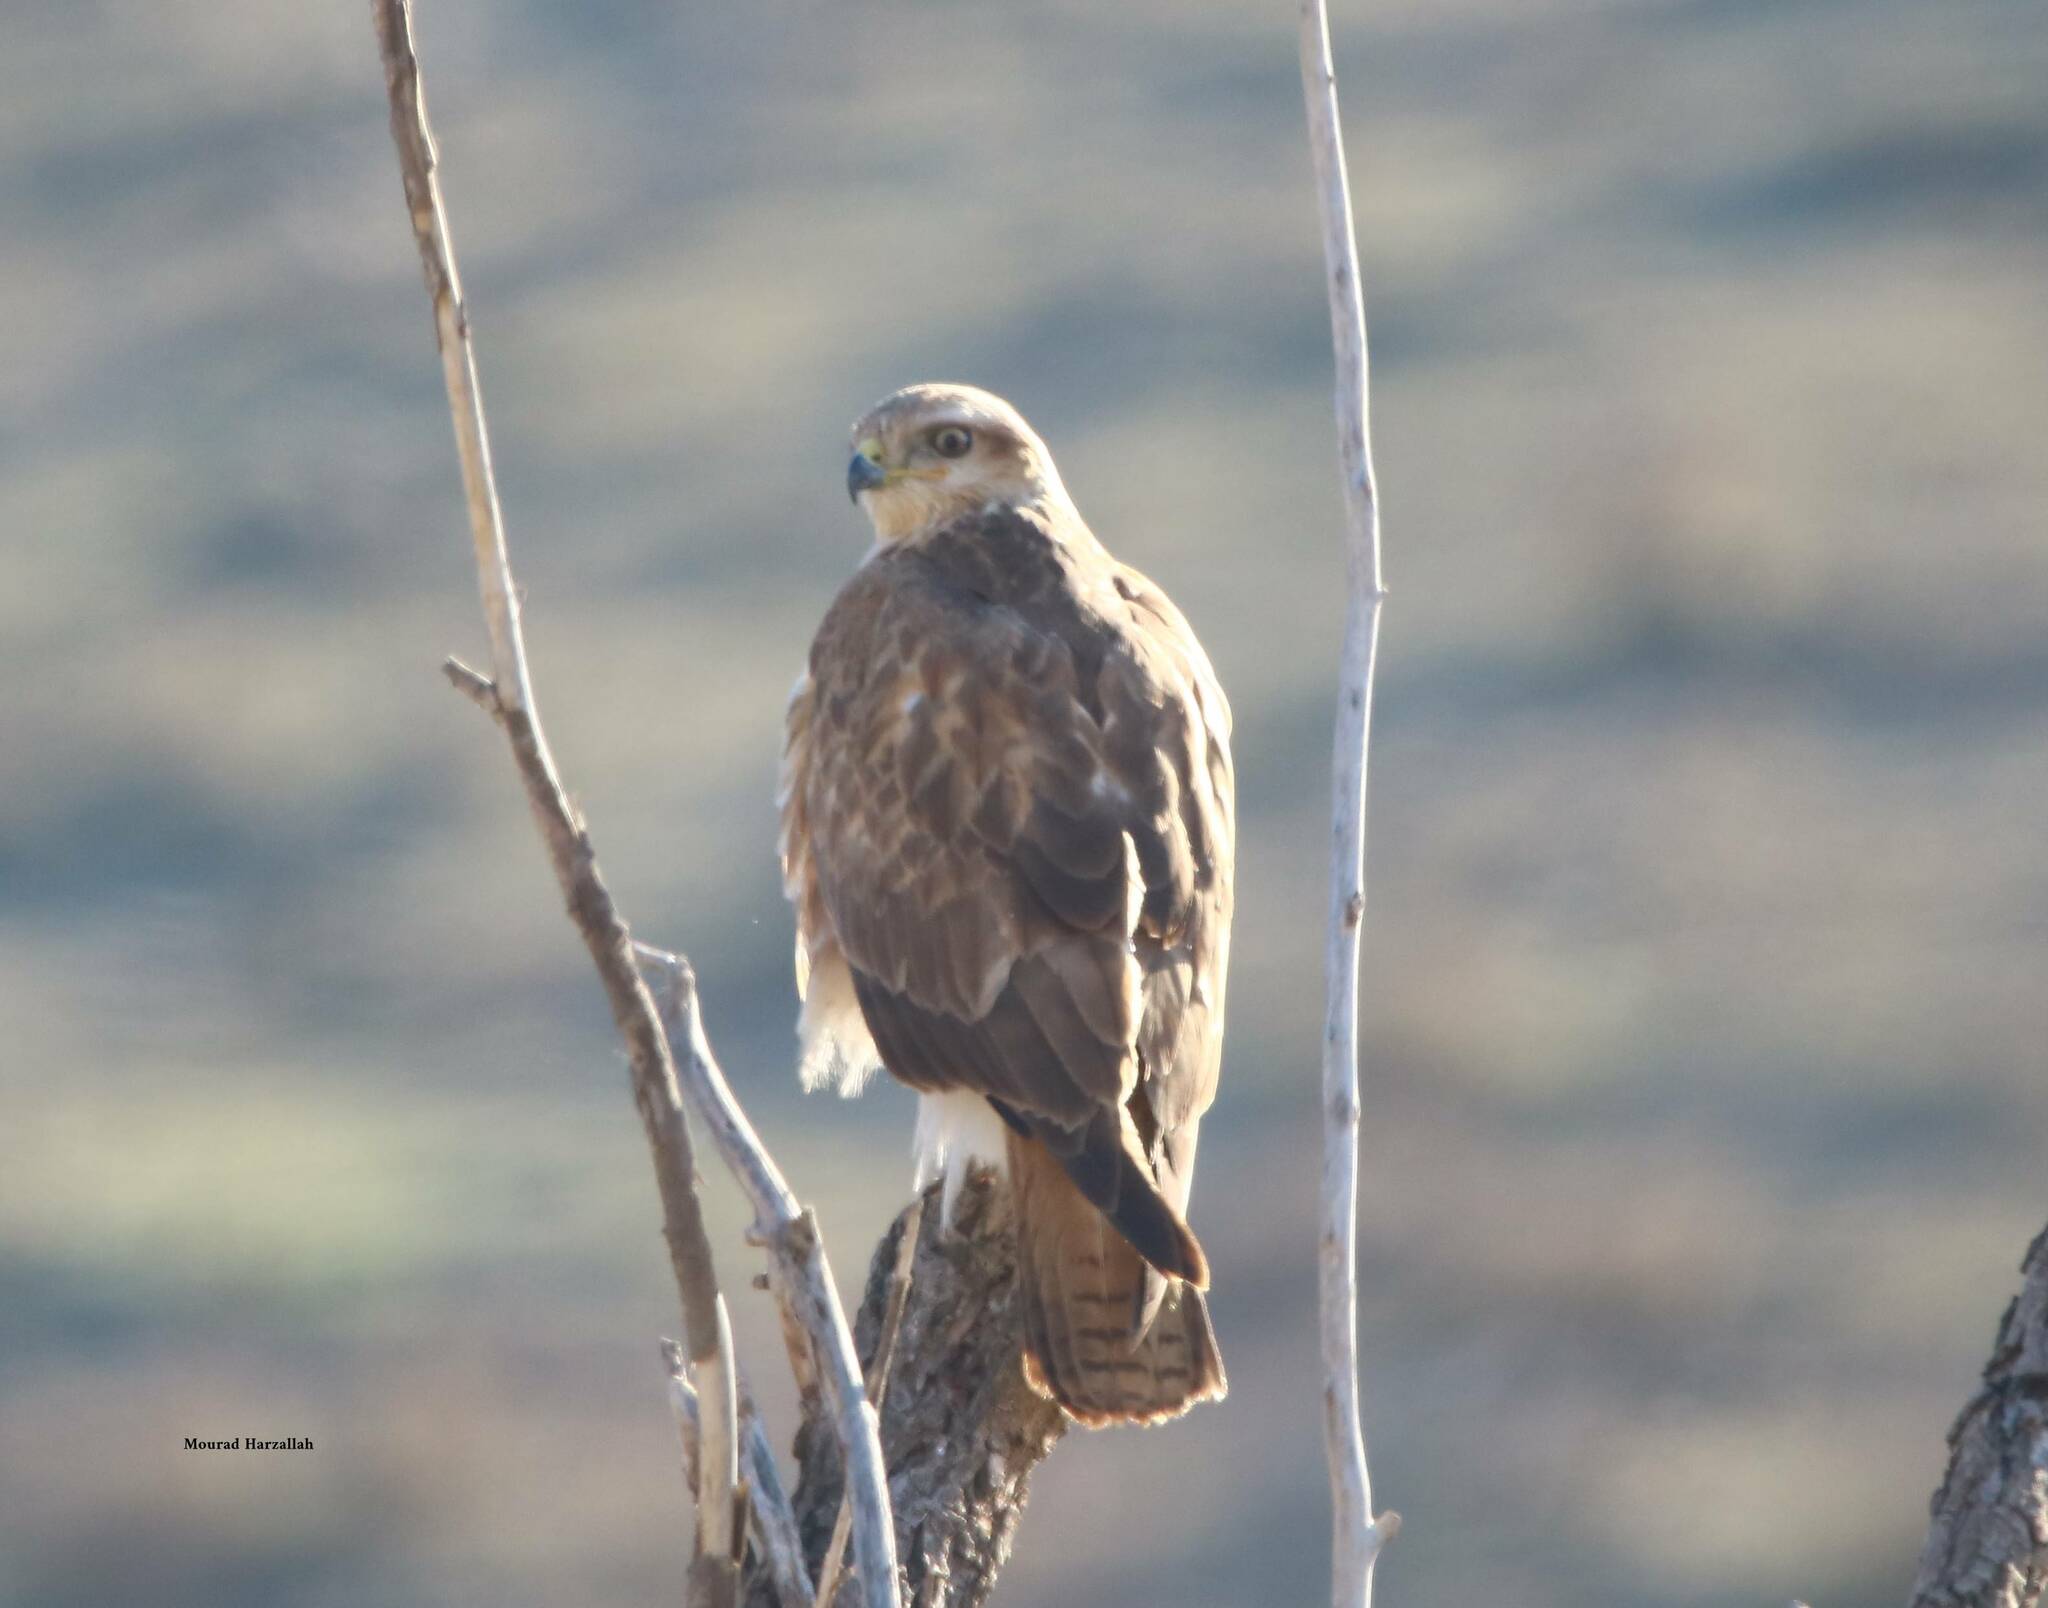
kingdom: Animalia
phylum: Chordata
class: Aves
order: Accipitriformes
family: Accipitridae
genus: Buteo
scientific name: Buteo rufinus
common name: Long-legged buzzard
